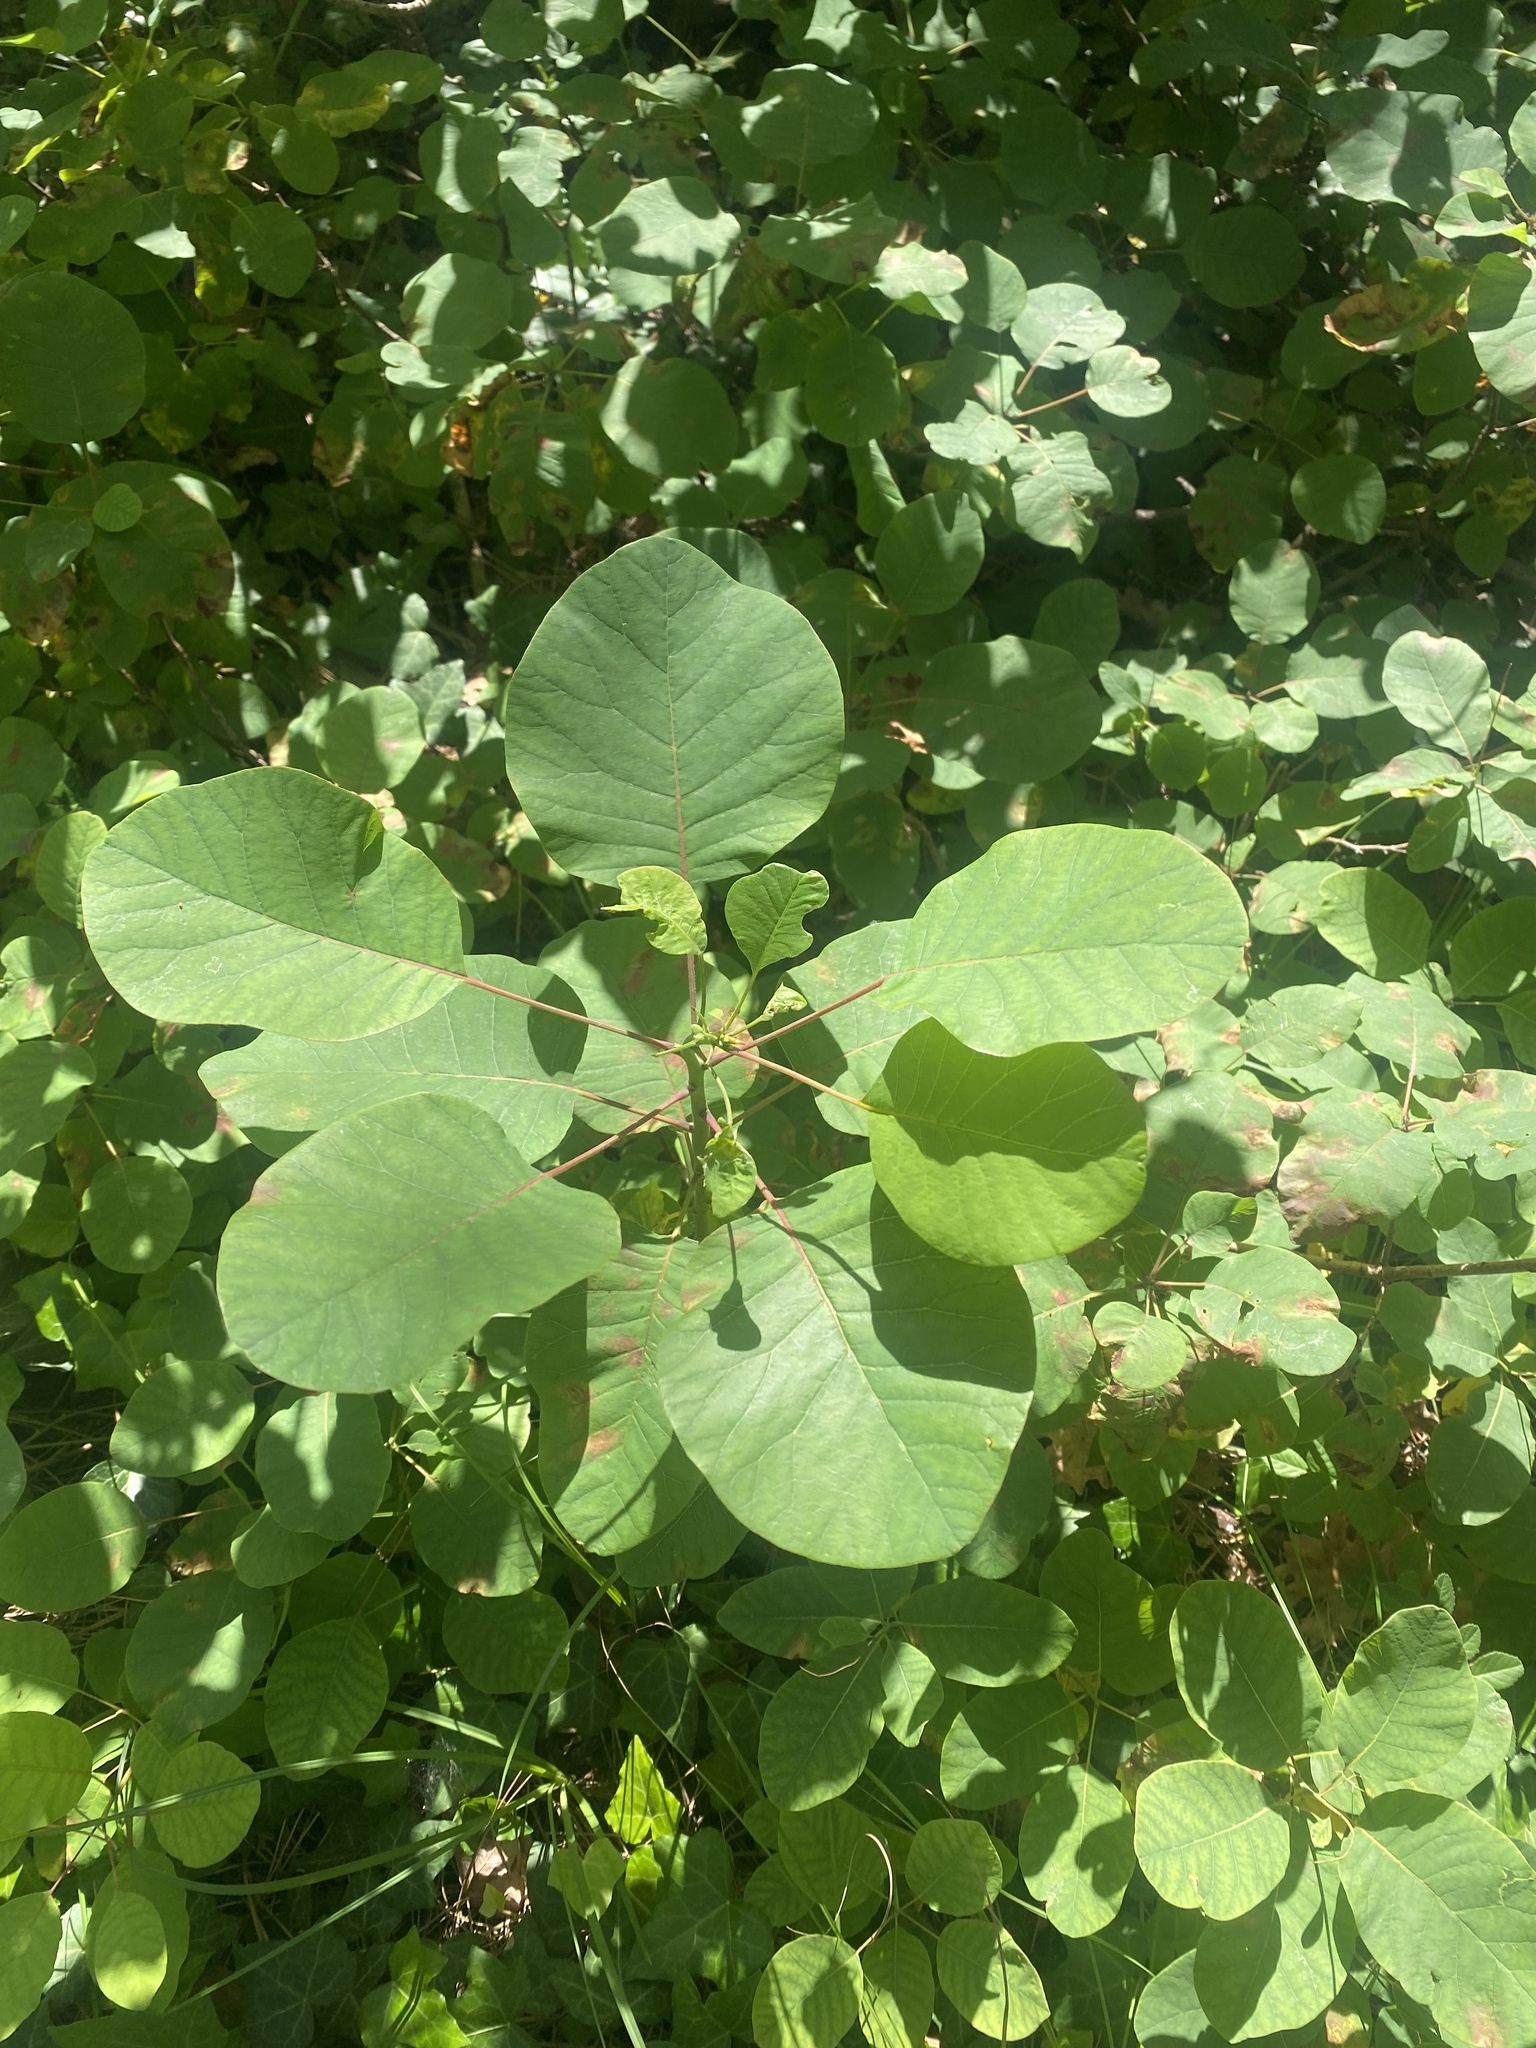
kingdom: Plantae
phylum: Tracheophyta
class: Magnoliopsida
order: Sapindales
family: Anacardiaceae
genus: Cotinus
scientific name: Cotinus coggygria
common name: Smoke-tree
